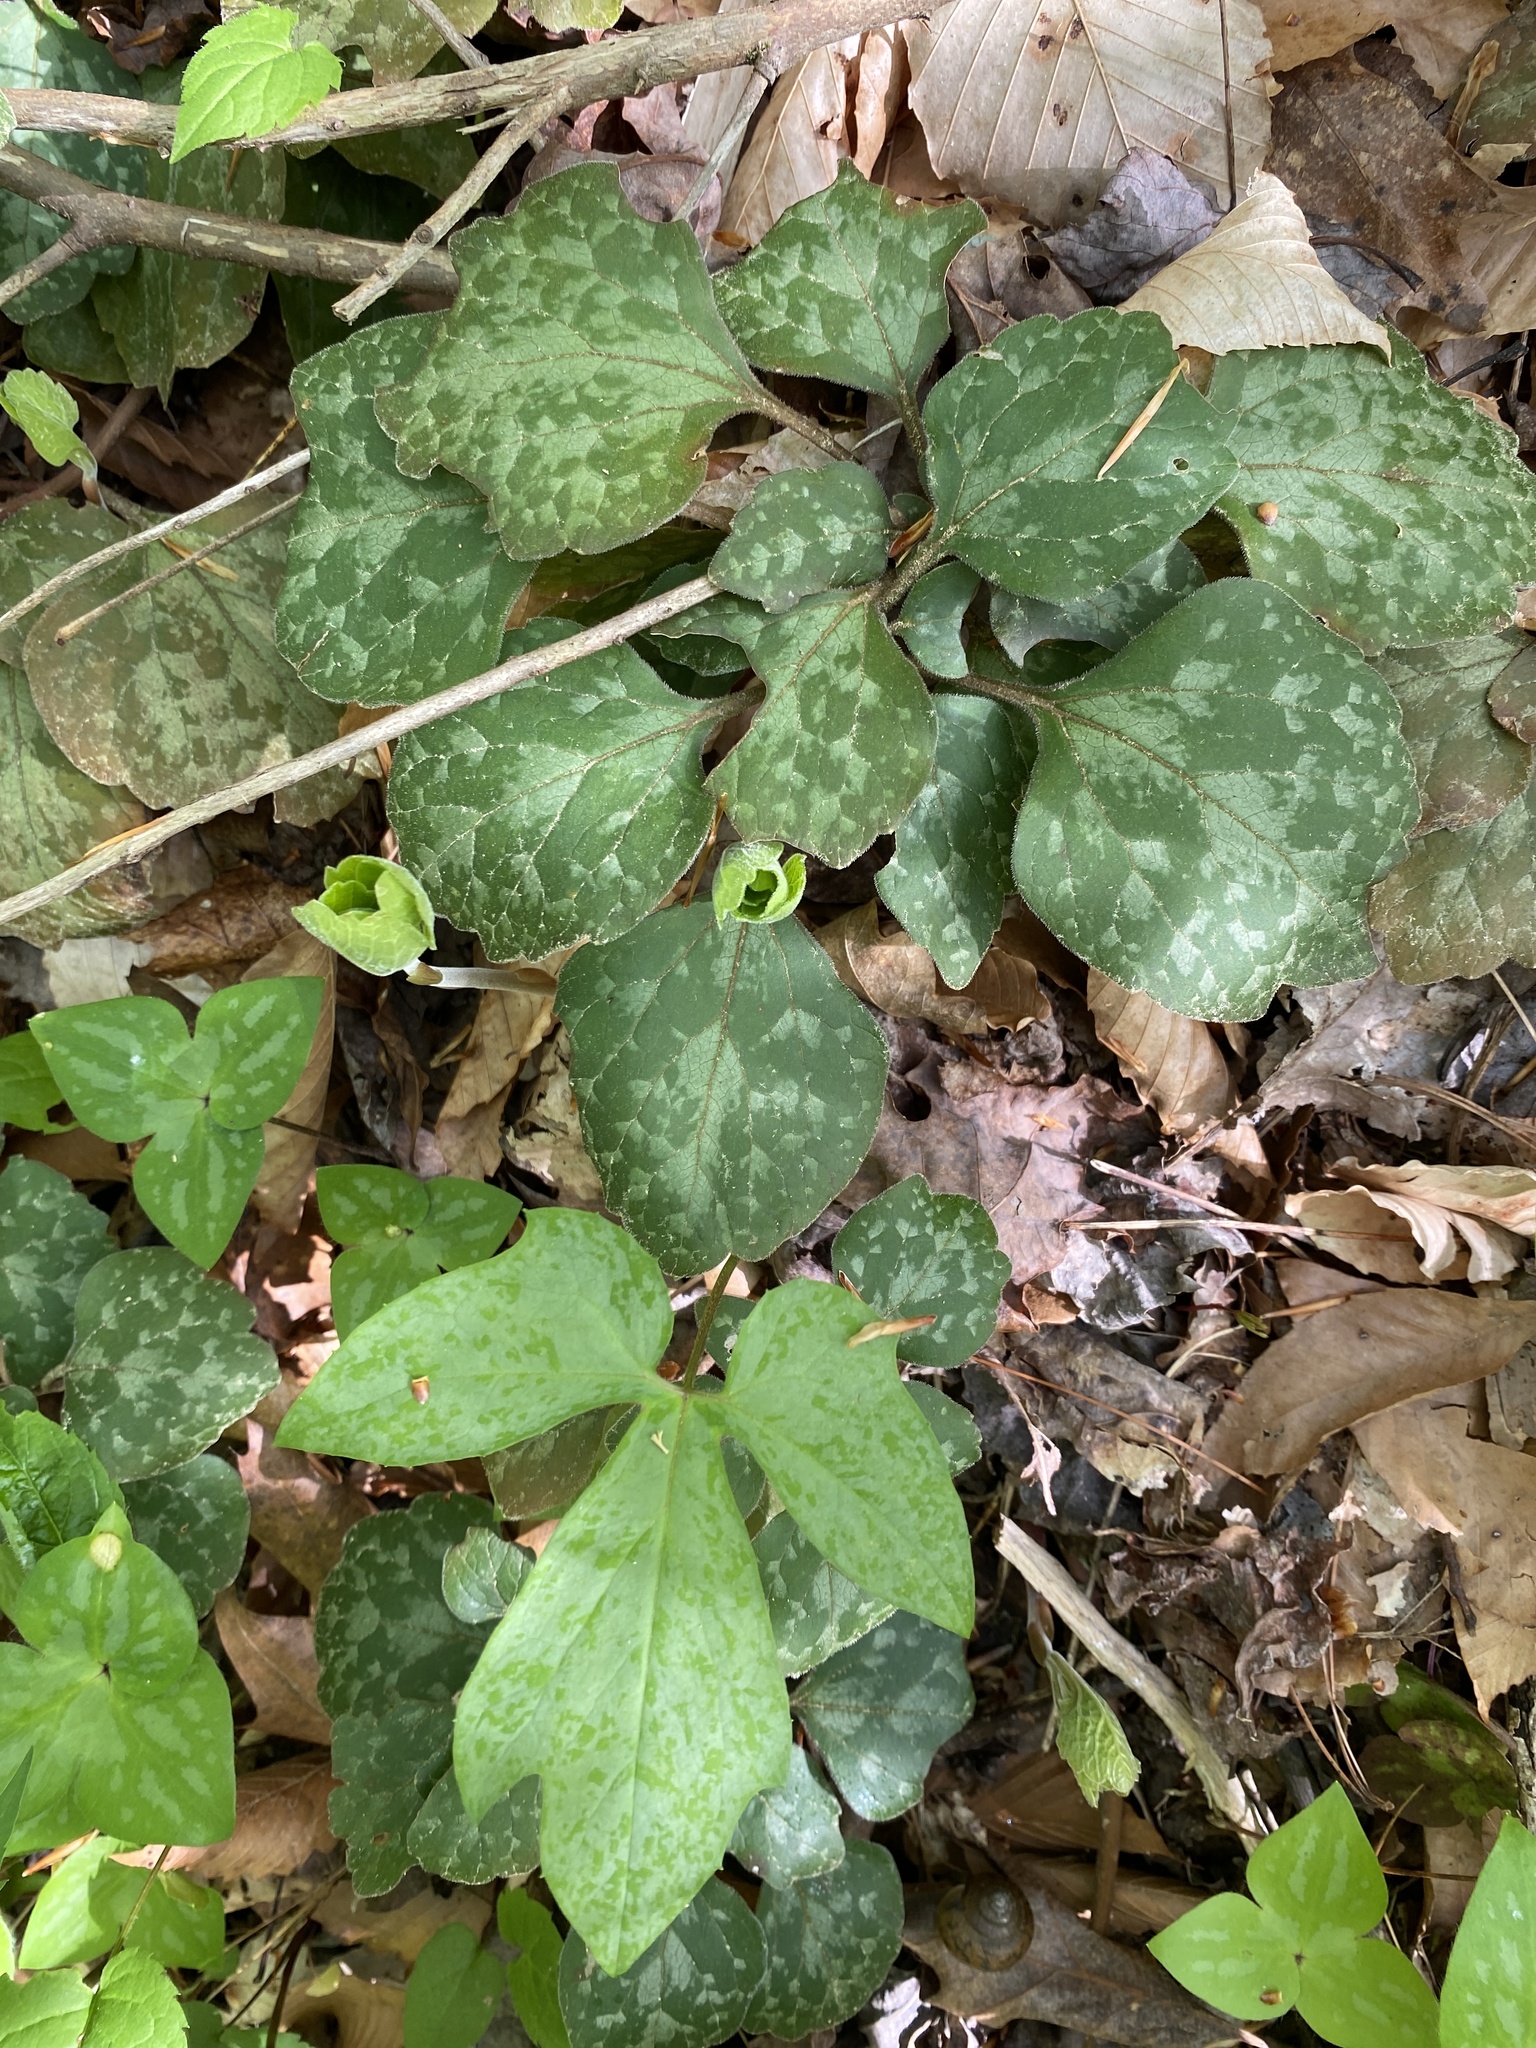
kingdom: Plantae
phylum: Tracheophyta
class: Magnoliopsida
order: Buxales
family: Buxaceae
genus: Pachysandra
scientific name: Pachysandra procumbens
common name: Mountain-spurge
